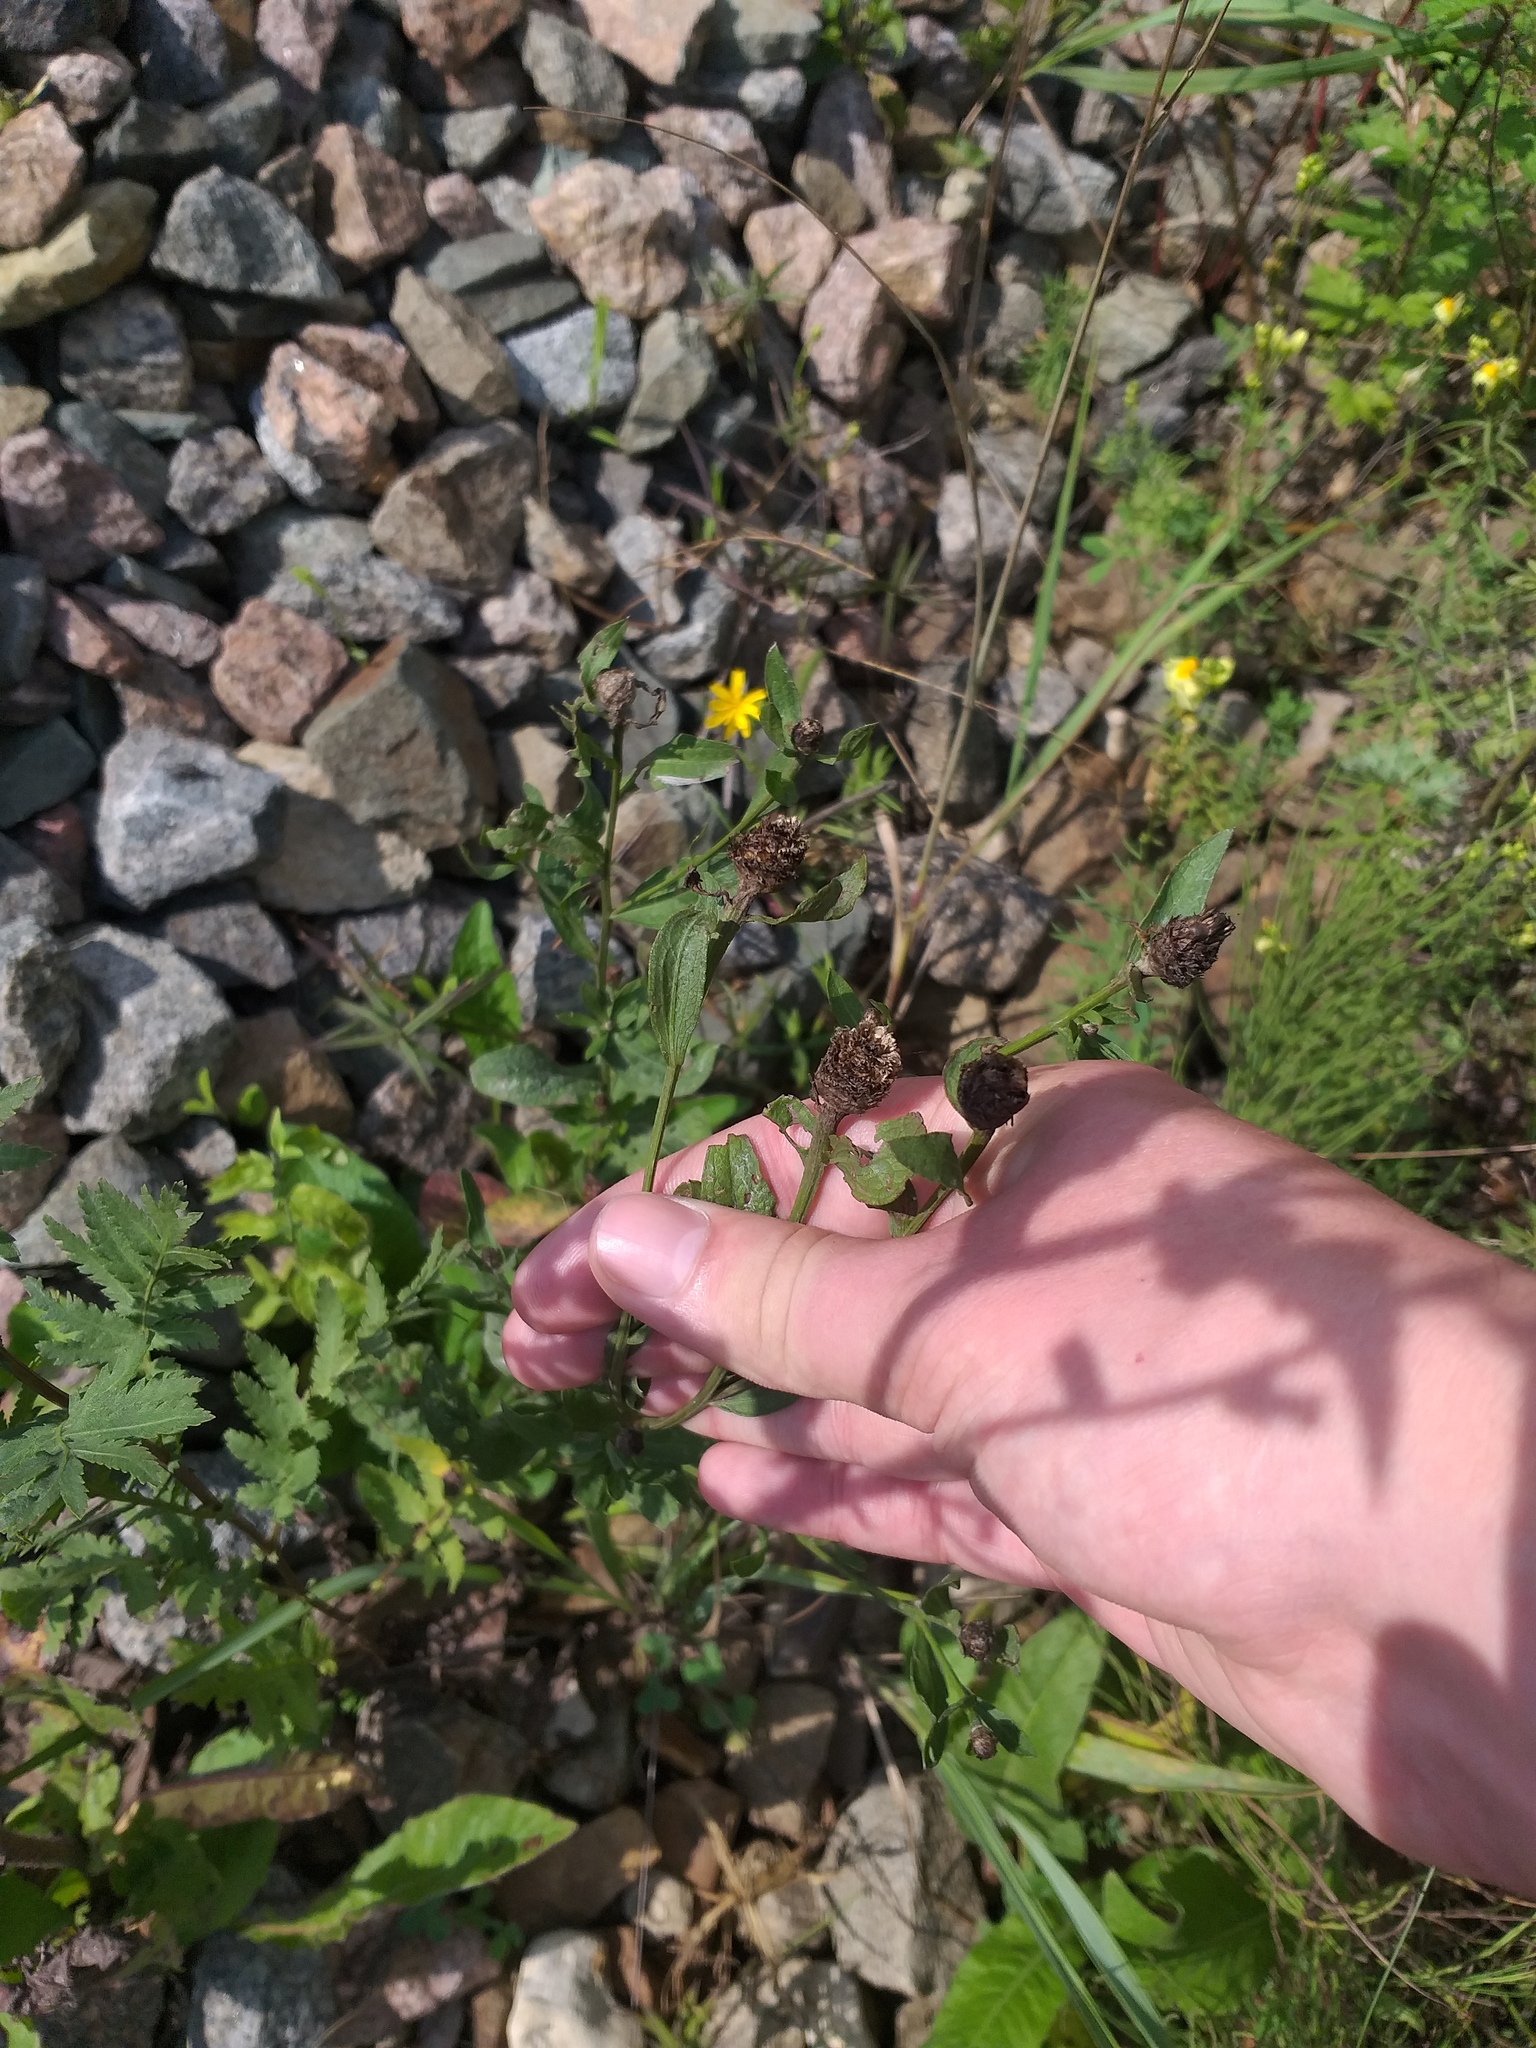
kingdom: Plantae
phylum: Tracheophyta
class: Magnoliopsida
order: Asterales
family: Asteraceae
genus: Centaurea
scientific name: Centaurea jacea
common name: Brown knapweed
